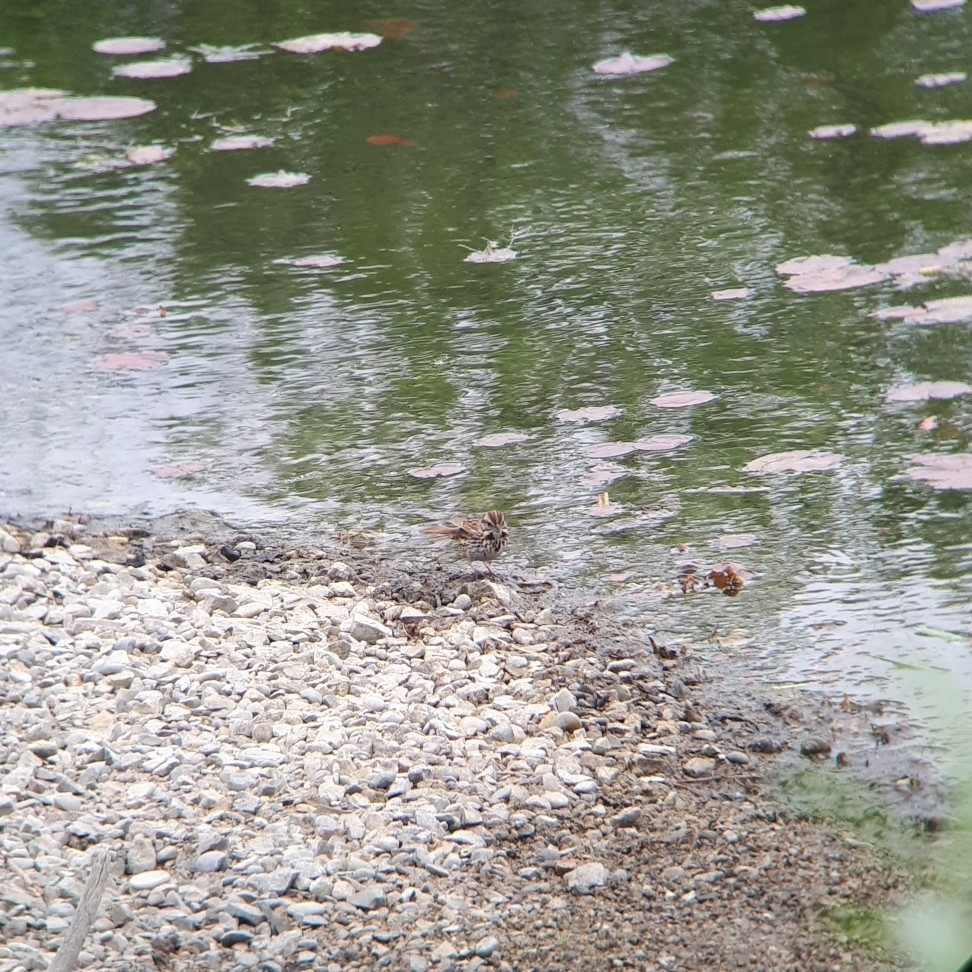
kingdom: Animalia
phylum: Chordata
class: Aves
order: Passeriformes
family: Passerellidae
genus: Melospiza
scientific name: Melospiza melodia
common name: Song sparrow
